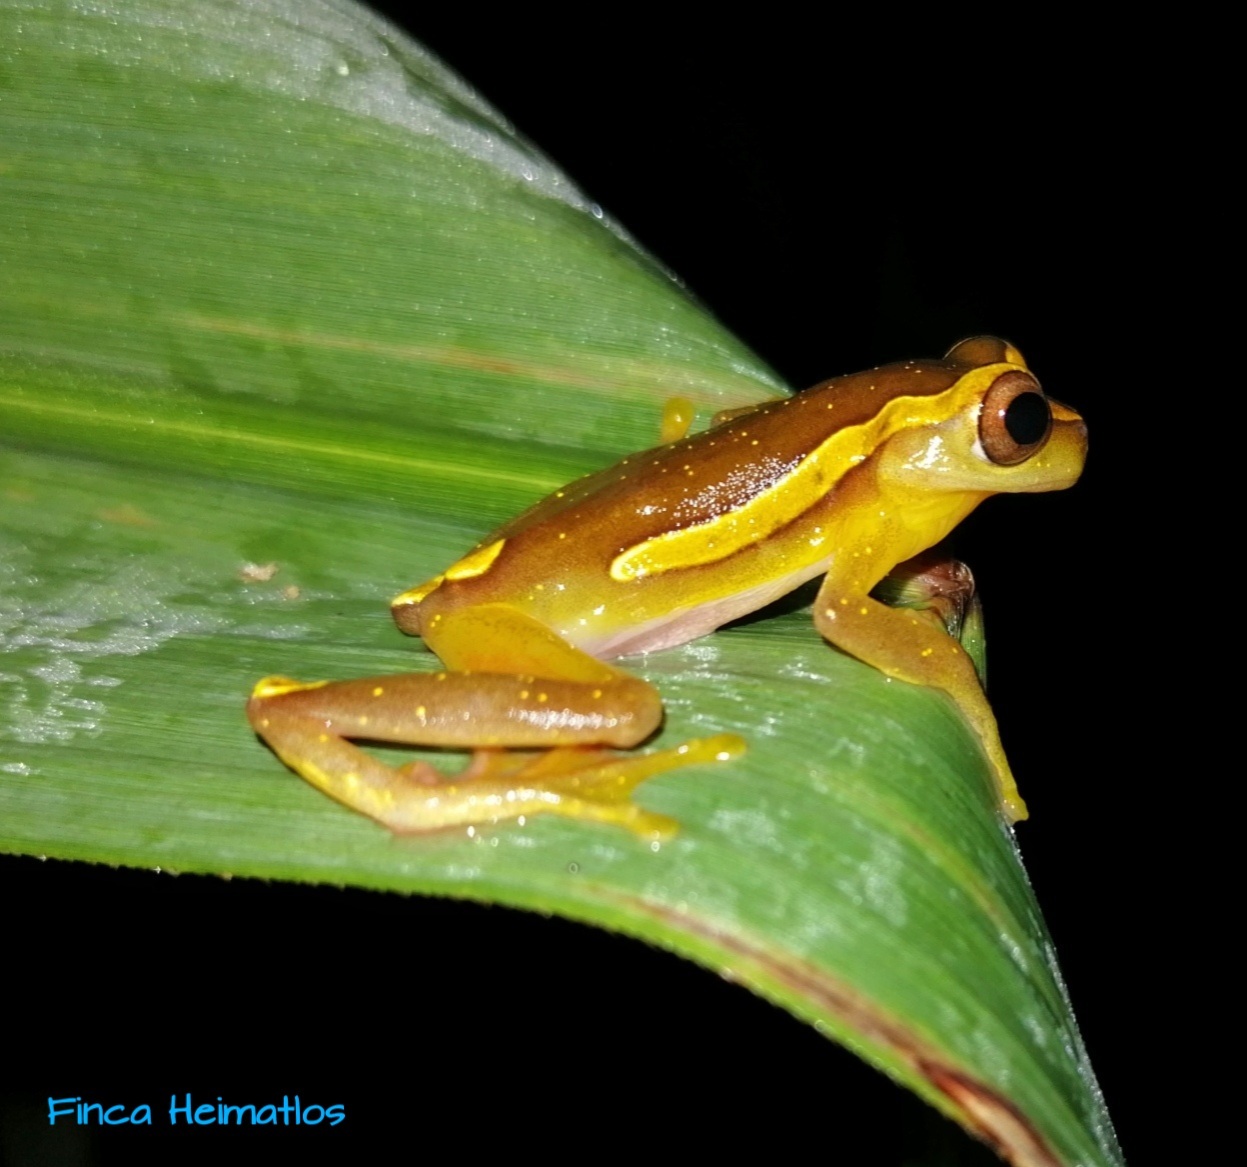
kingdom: Animalia
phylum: Chordata
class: Amphibia
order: Anura
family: Hylidae
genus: Dendropsophus
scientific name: Dendropsophus bifurcus
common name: Two-lined treefrog
